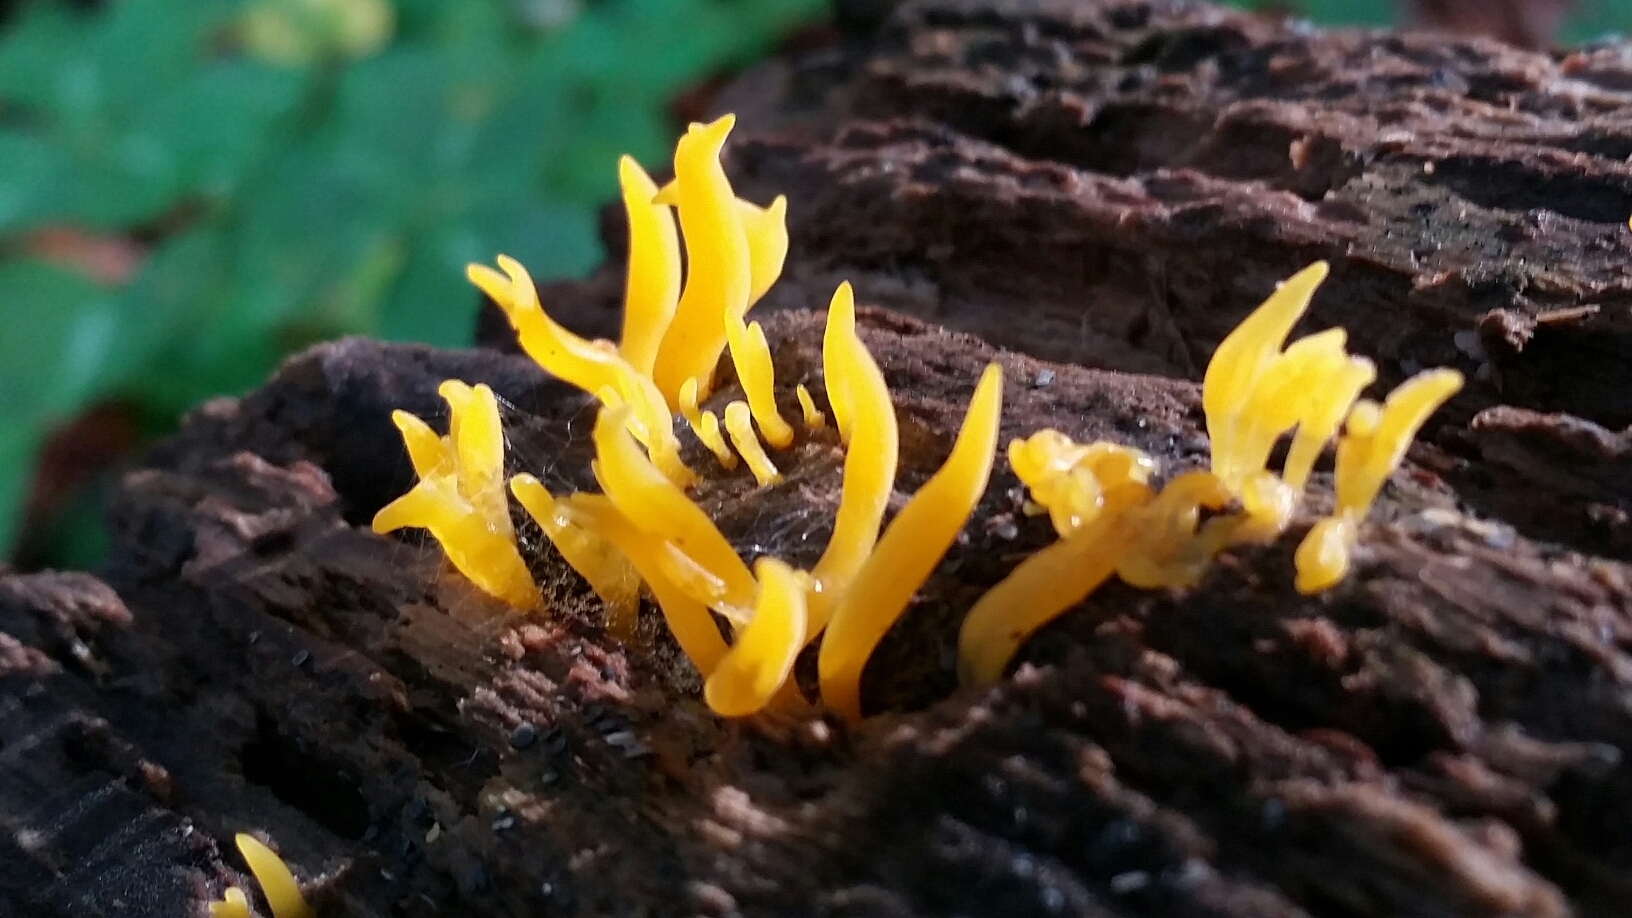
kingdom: Fungi
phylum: Basidiomycota
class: Dacrymycetes
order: Dacrymycetales
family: Dacrymycetaceae
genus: Calocera
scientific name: Calocera cornea
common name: Small stagshorn
